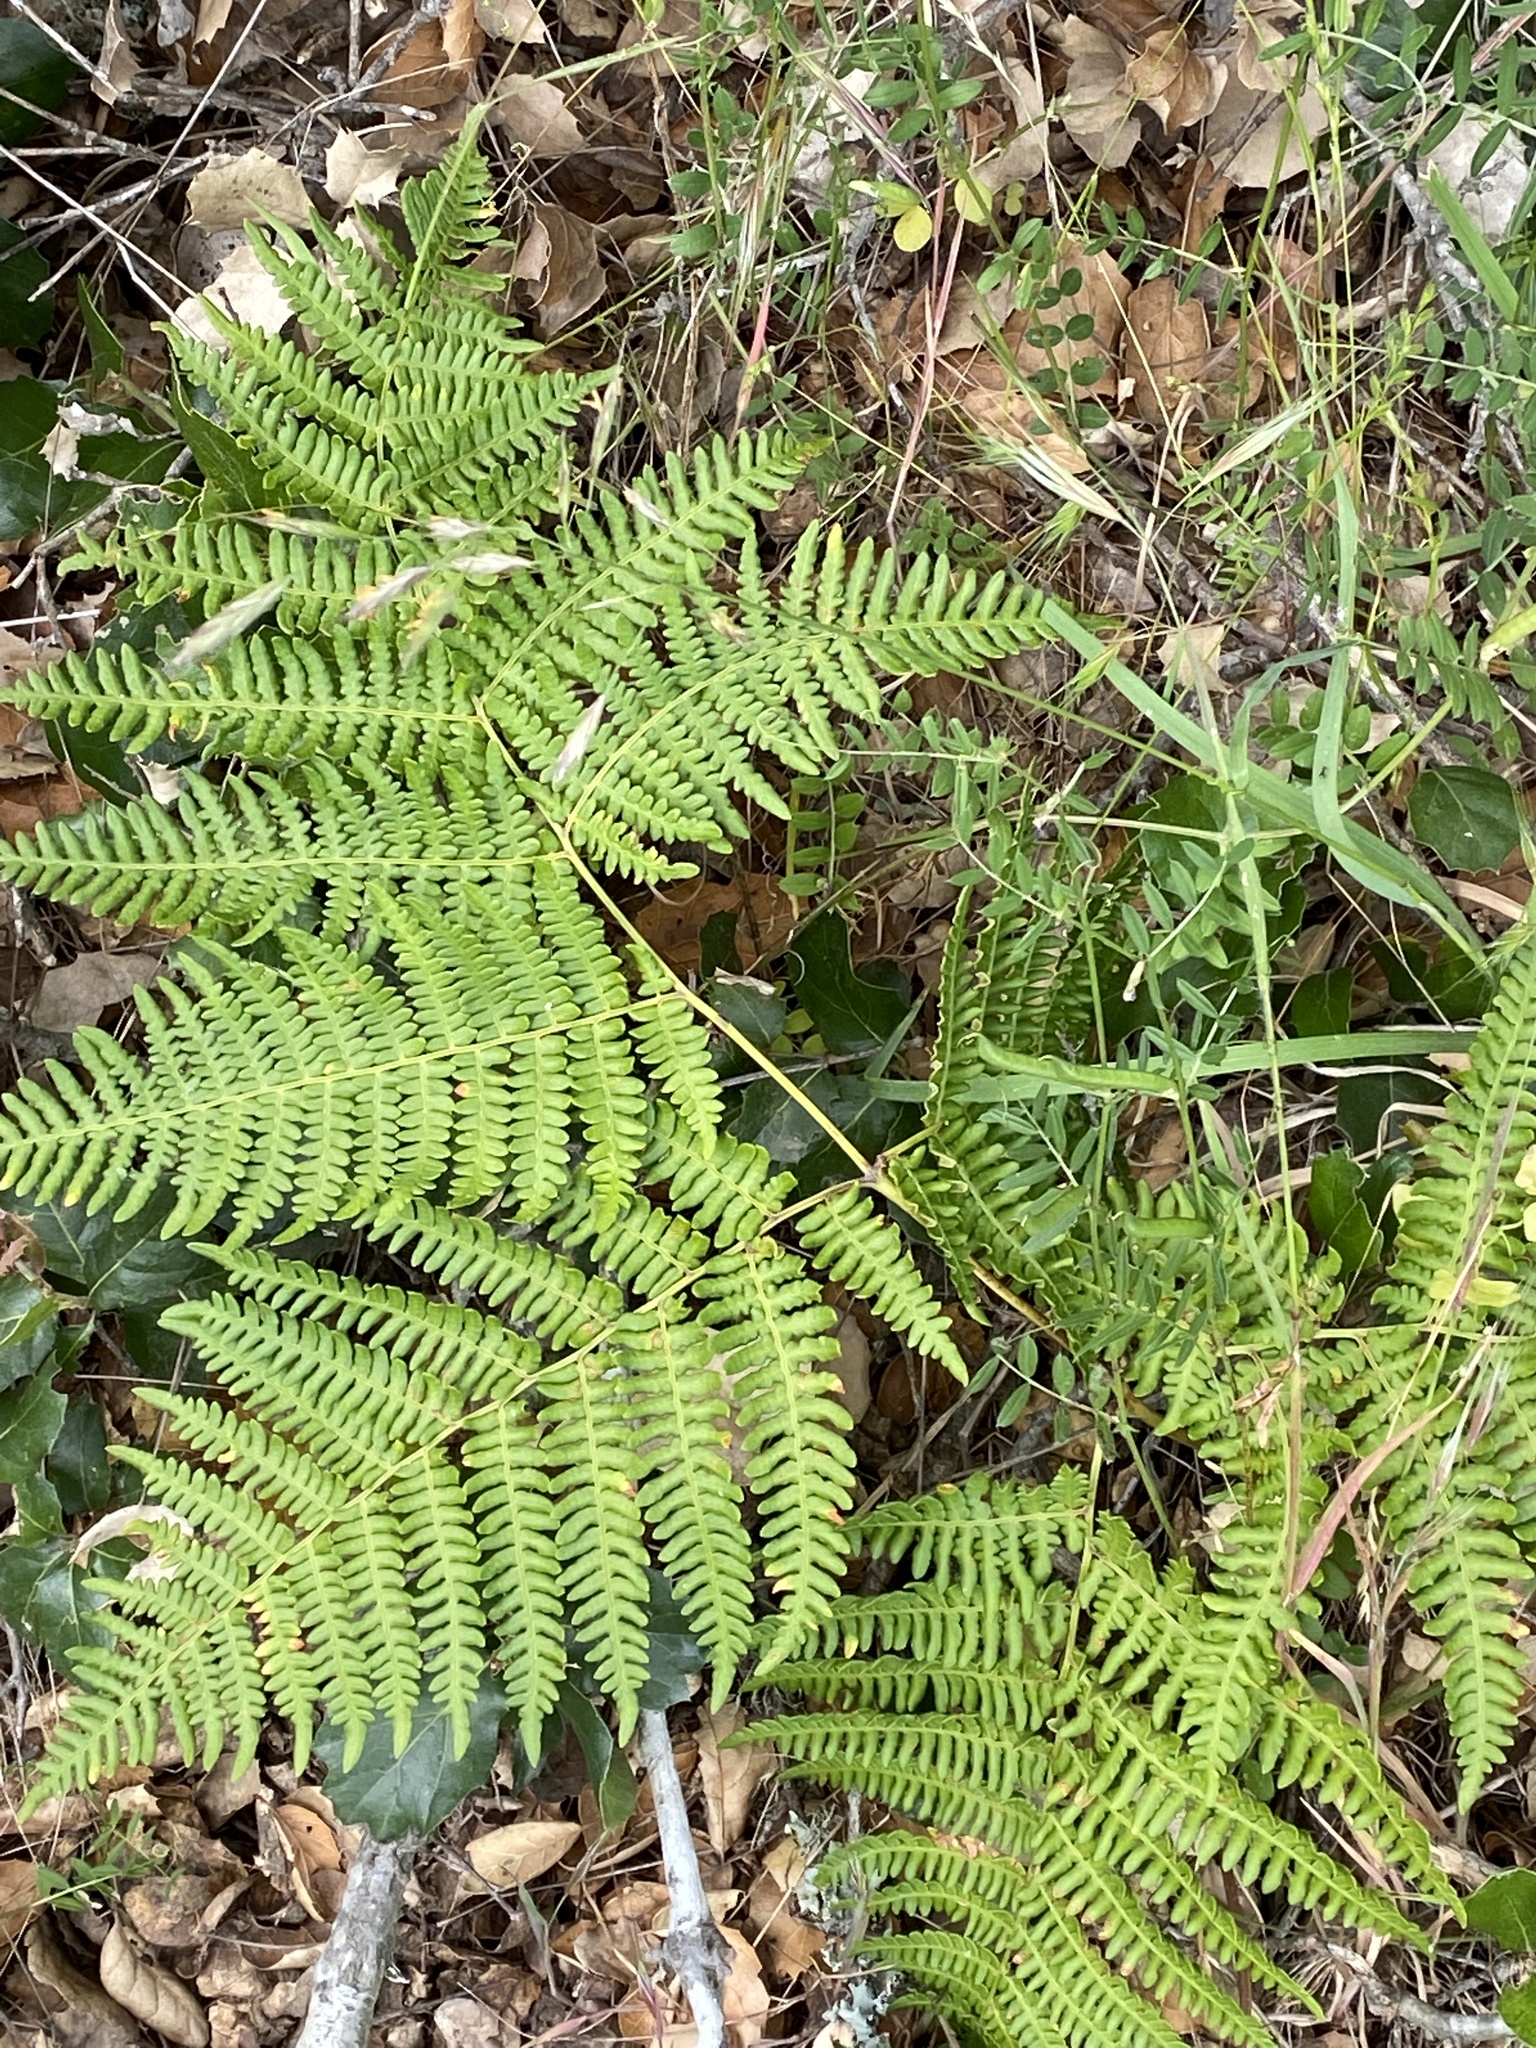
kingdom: Plantae
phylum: Tracheophyta
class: Polypodiopsida
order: Polypodiales
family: Dennstaedtiaceae
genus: Pteridium
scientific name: Pteridium aquilinum
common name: Bracken
